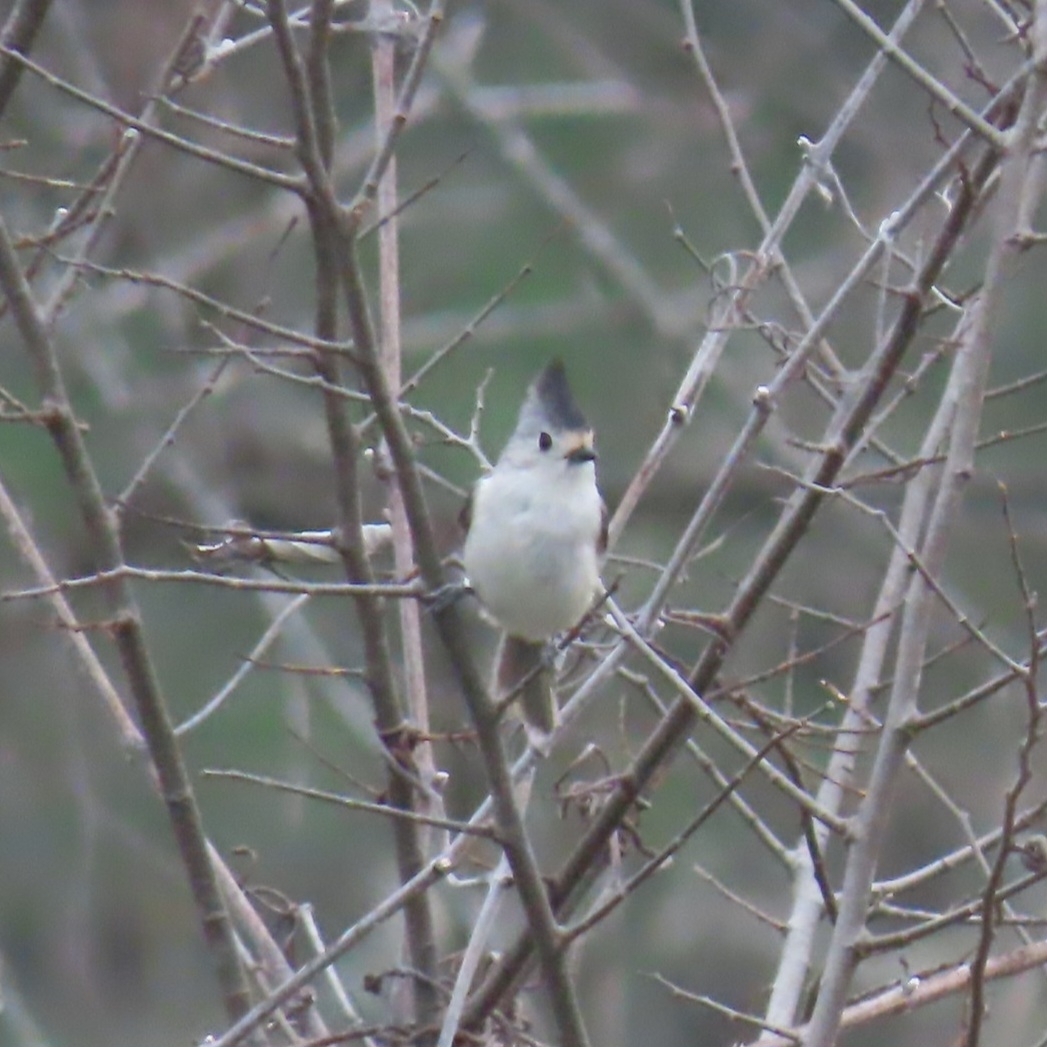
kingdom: Animalia
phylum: Chordata
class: Aves
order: Passeriformes
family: Paridae
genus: Baeolophus
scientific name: Baeolophus atricristatus
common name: Black-crested titmouse
